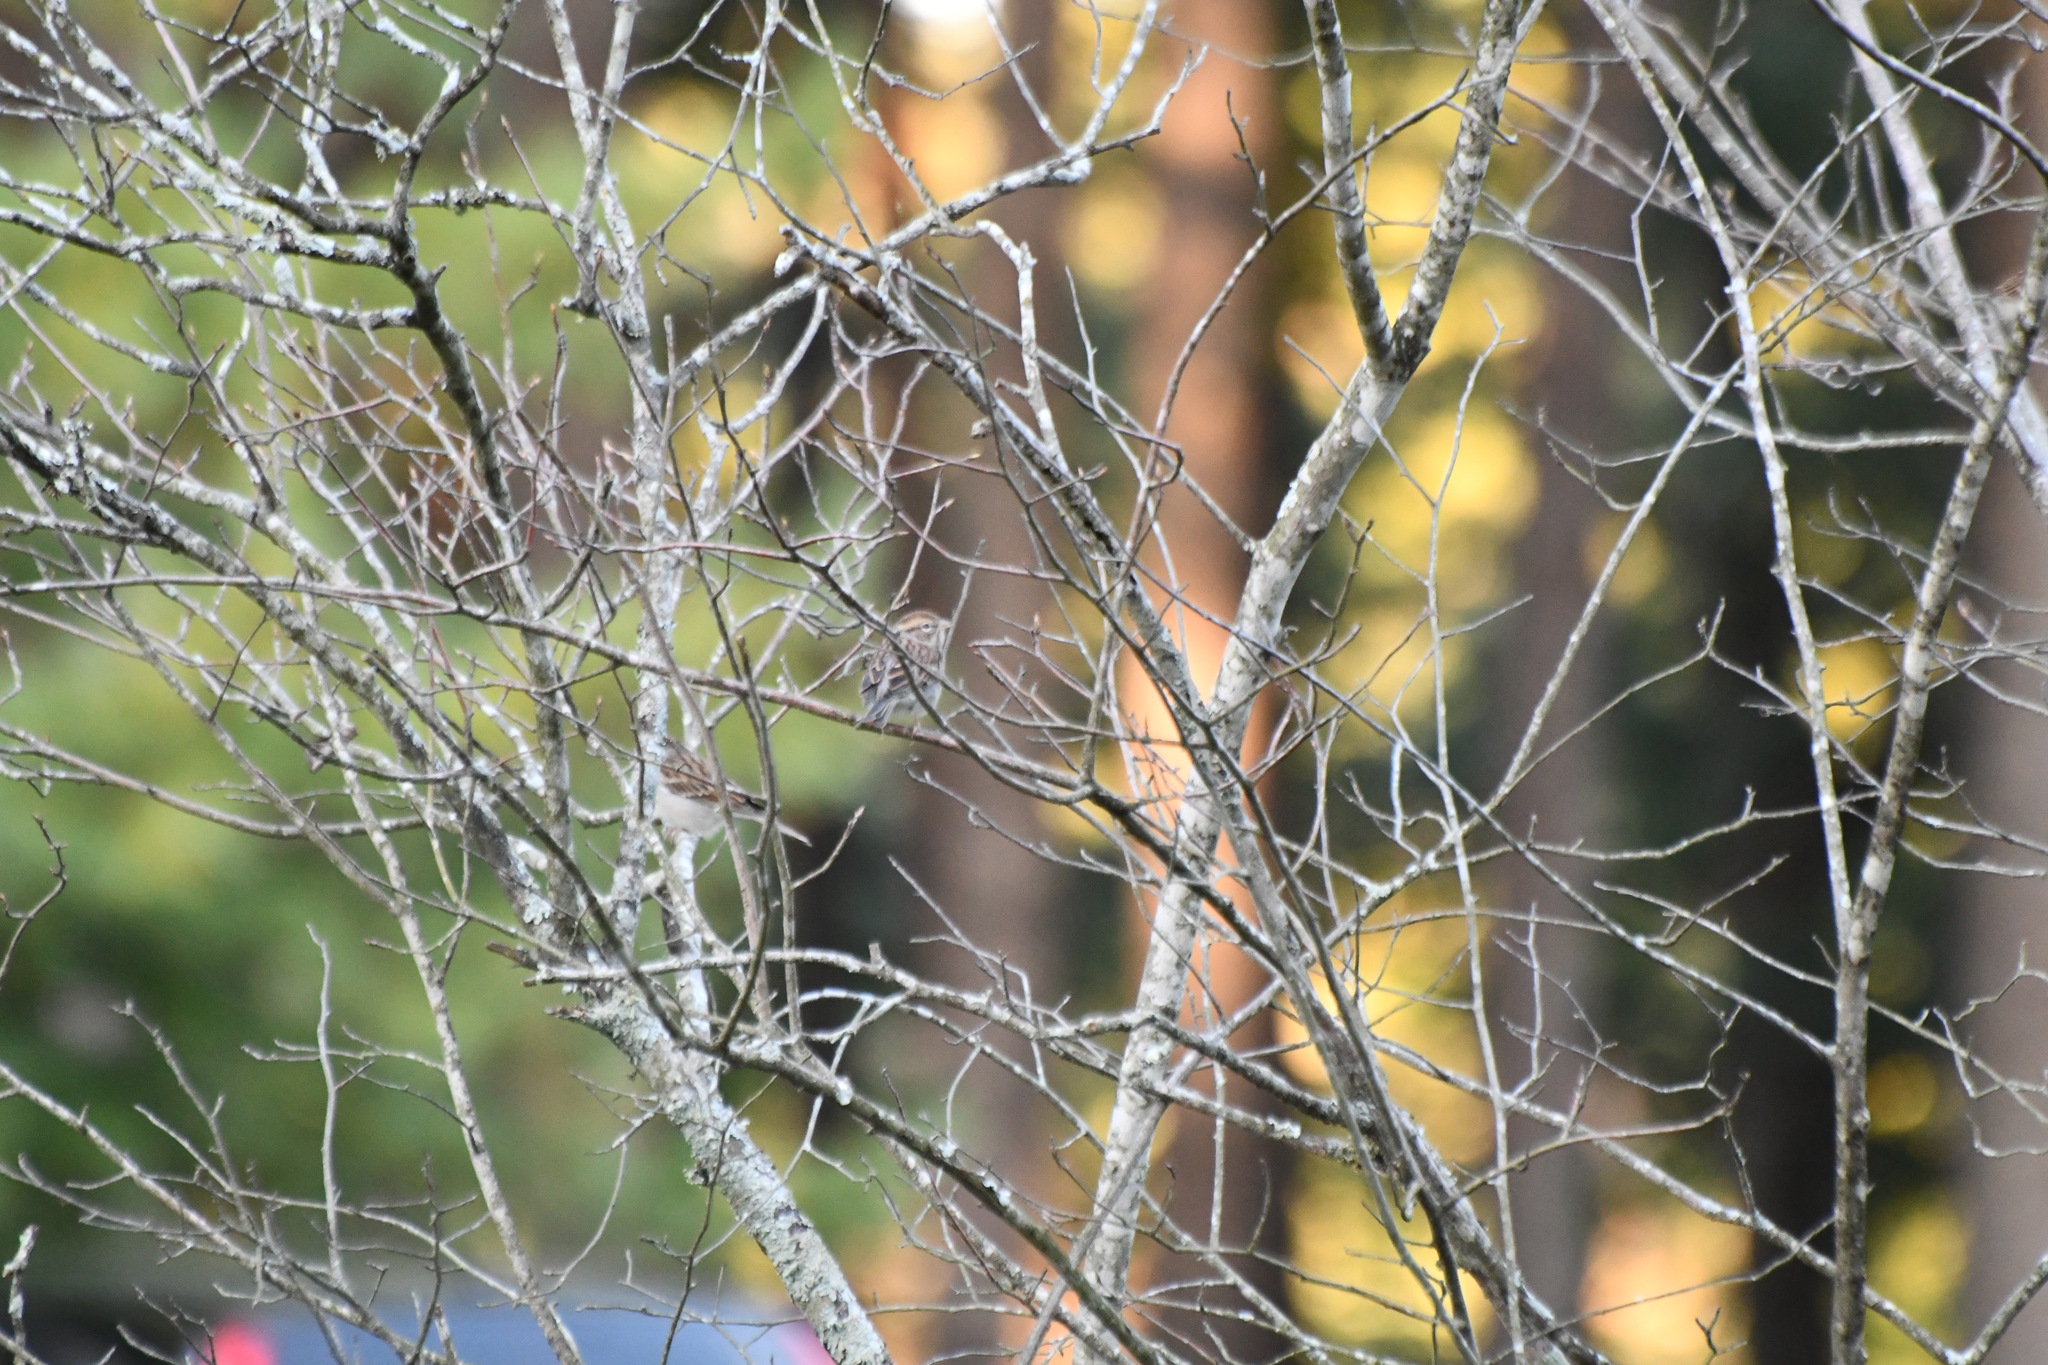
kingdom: Animalia
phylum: Chordata
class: Aves
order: Passeriformes
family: Passerellidae
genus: Spizella
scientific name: Spizella passerina
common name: Chipping sparrow
